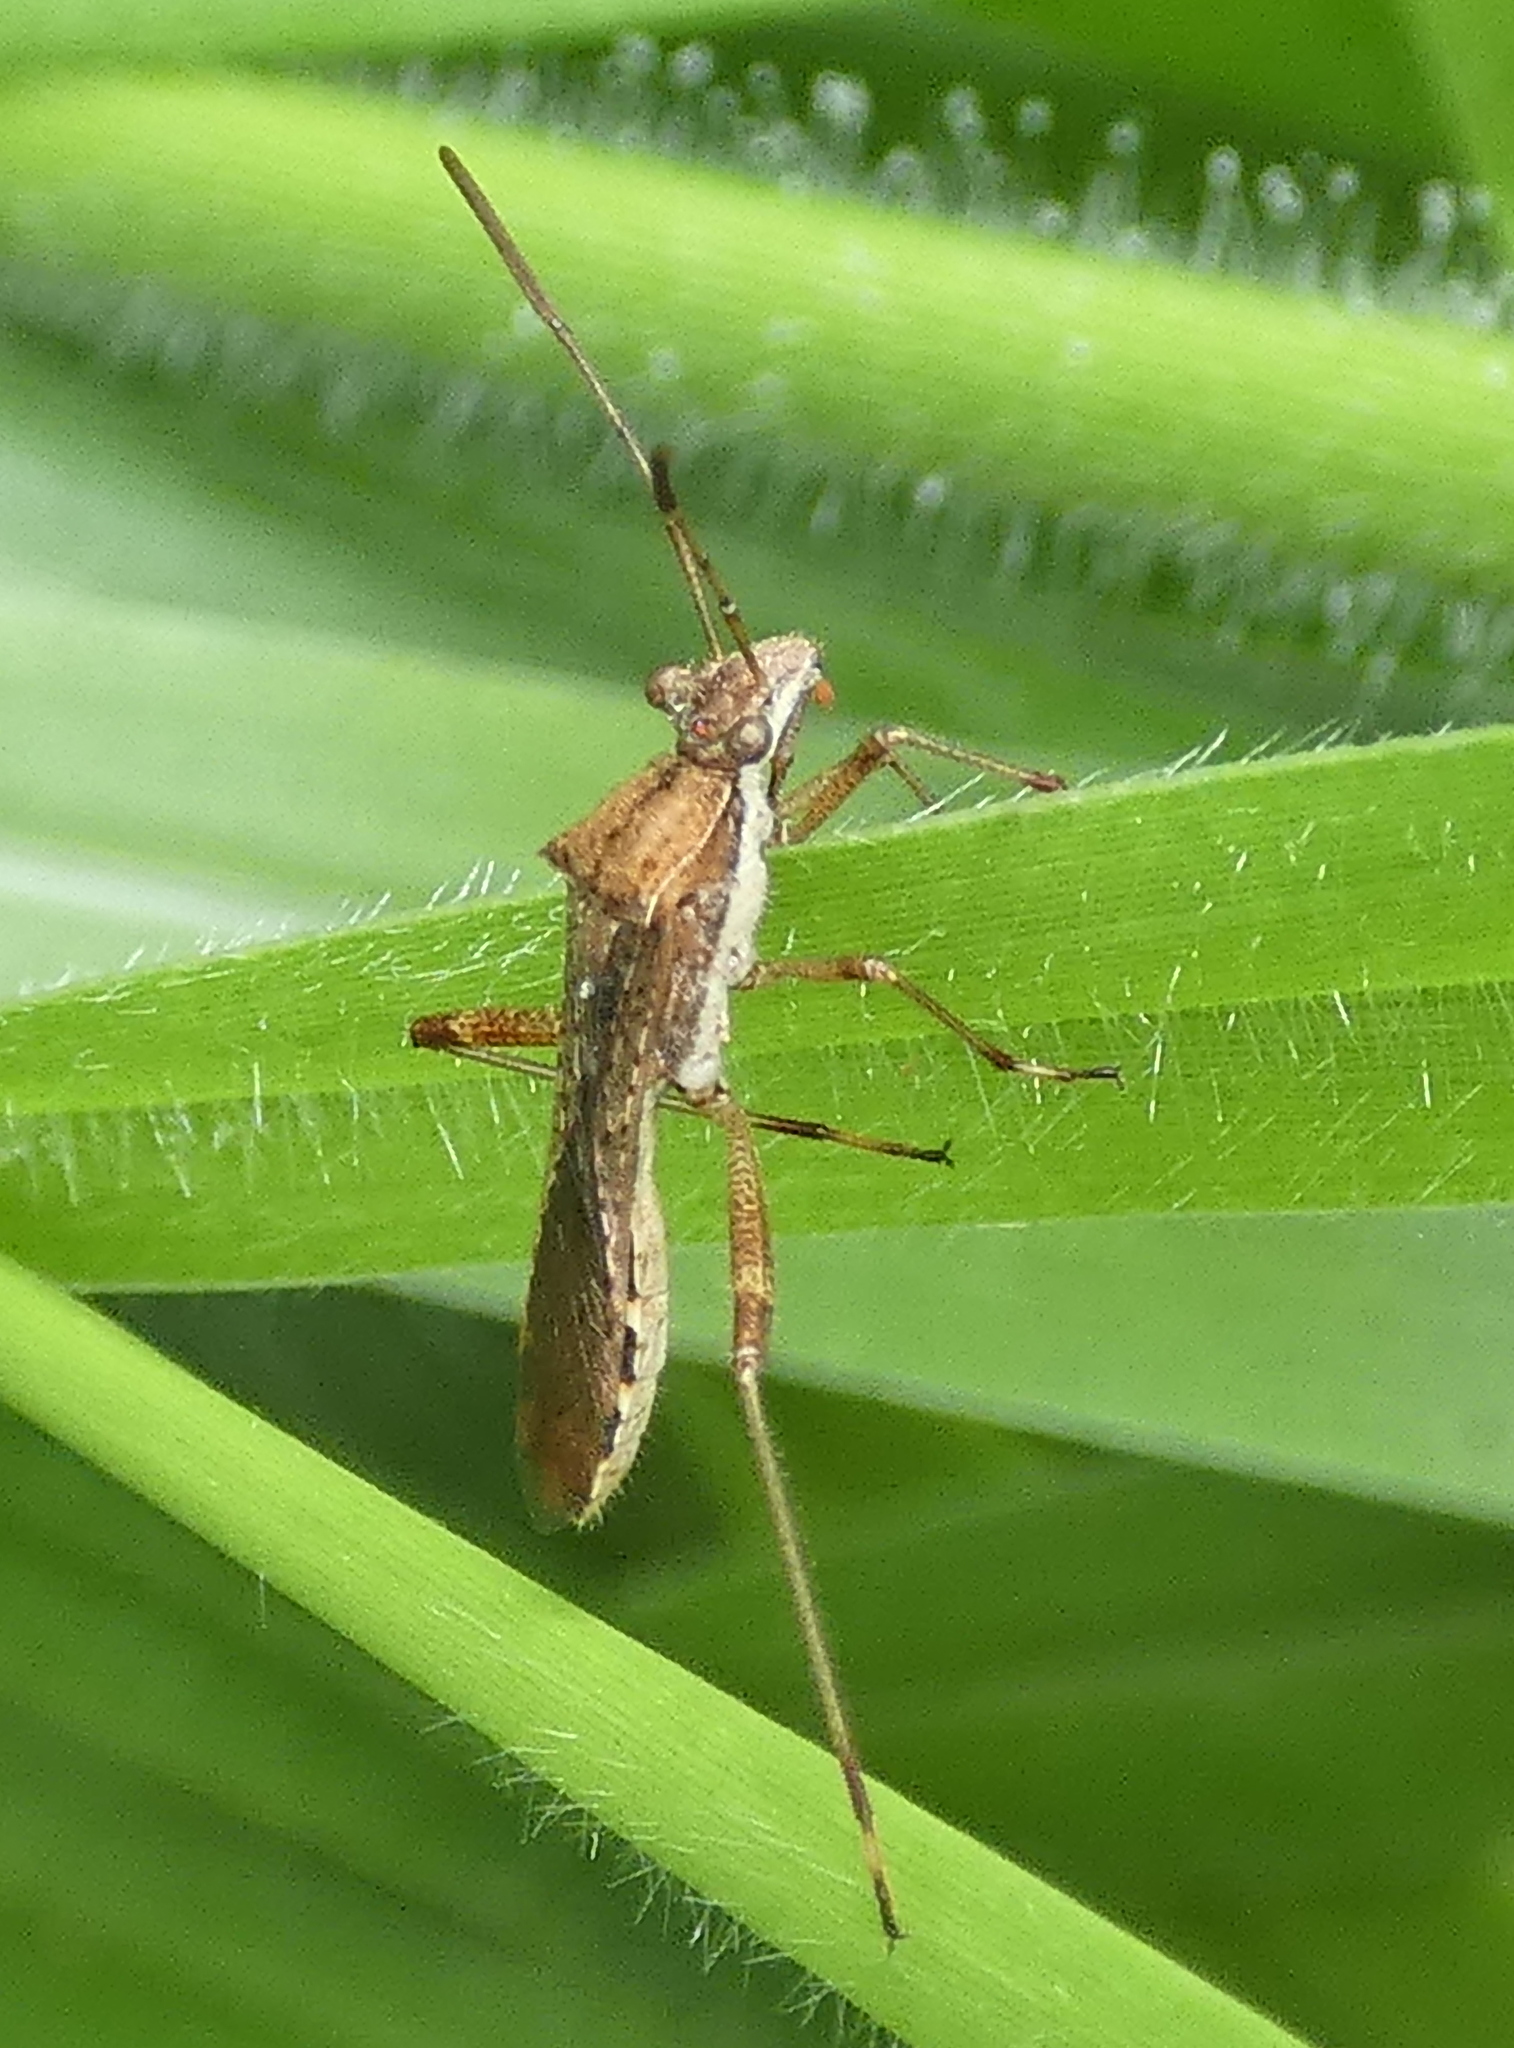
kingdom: Animalia
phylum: Arthropoda
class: Insecta
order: Hemiptera
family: Alydidae
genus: Neomegalotomus
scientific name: Neomegalotomus parvus
